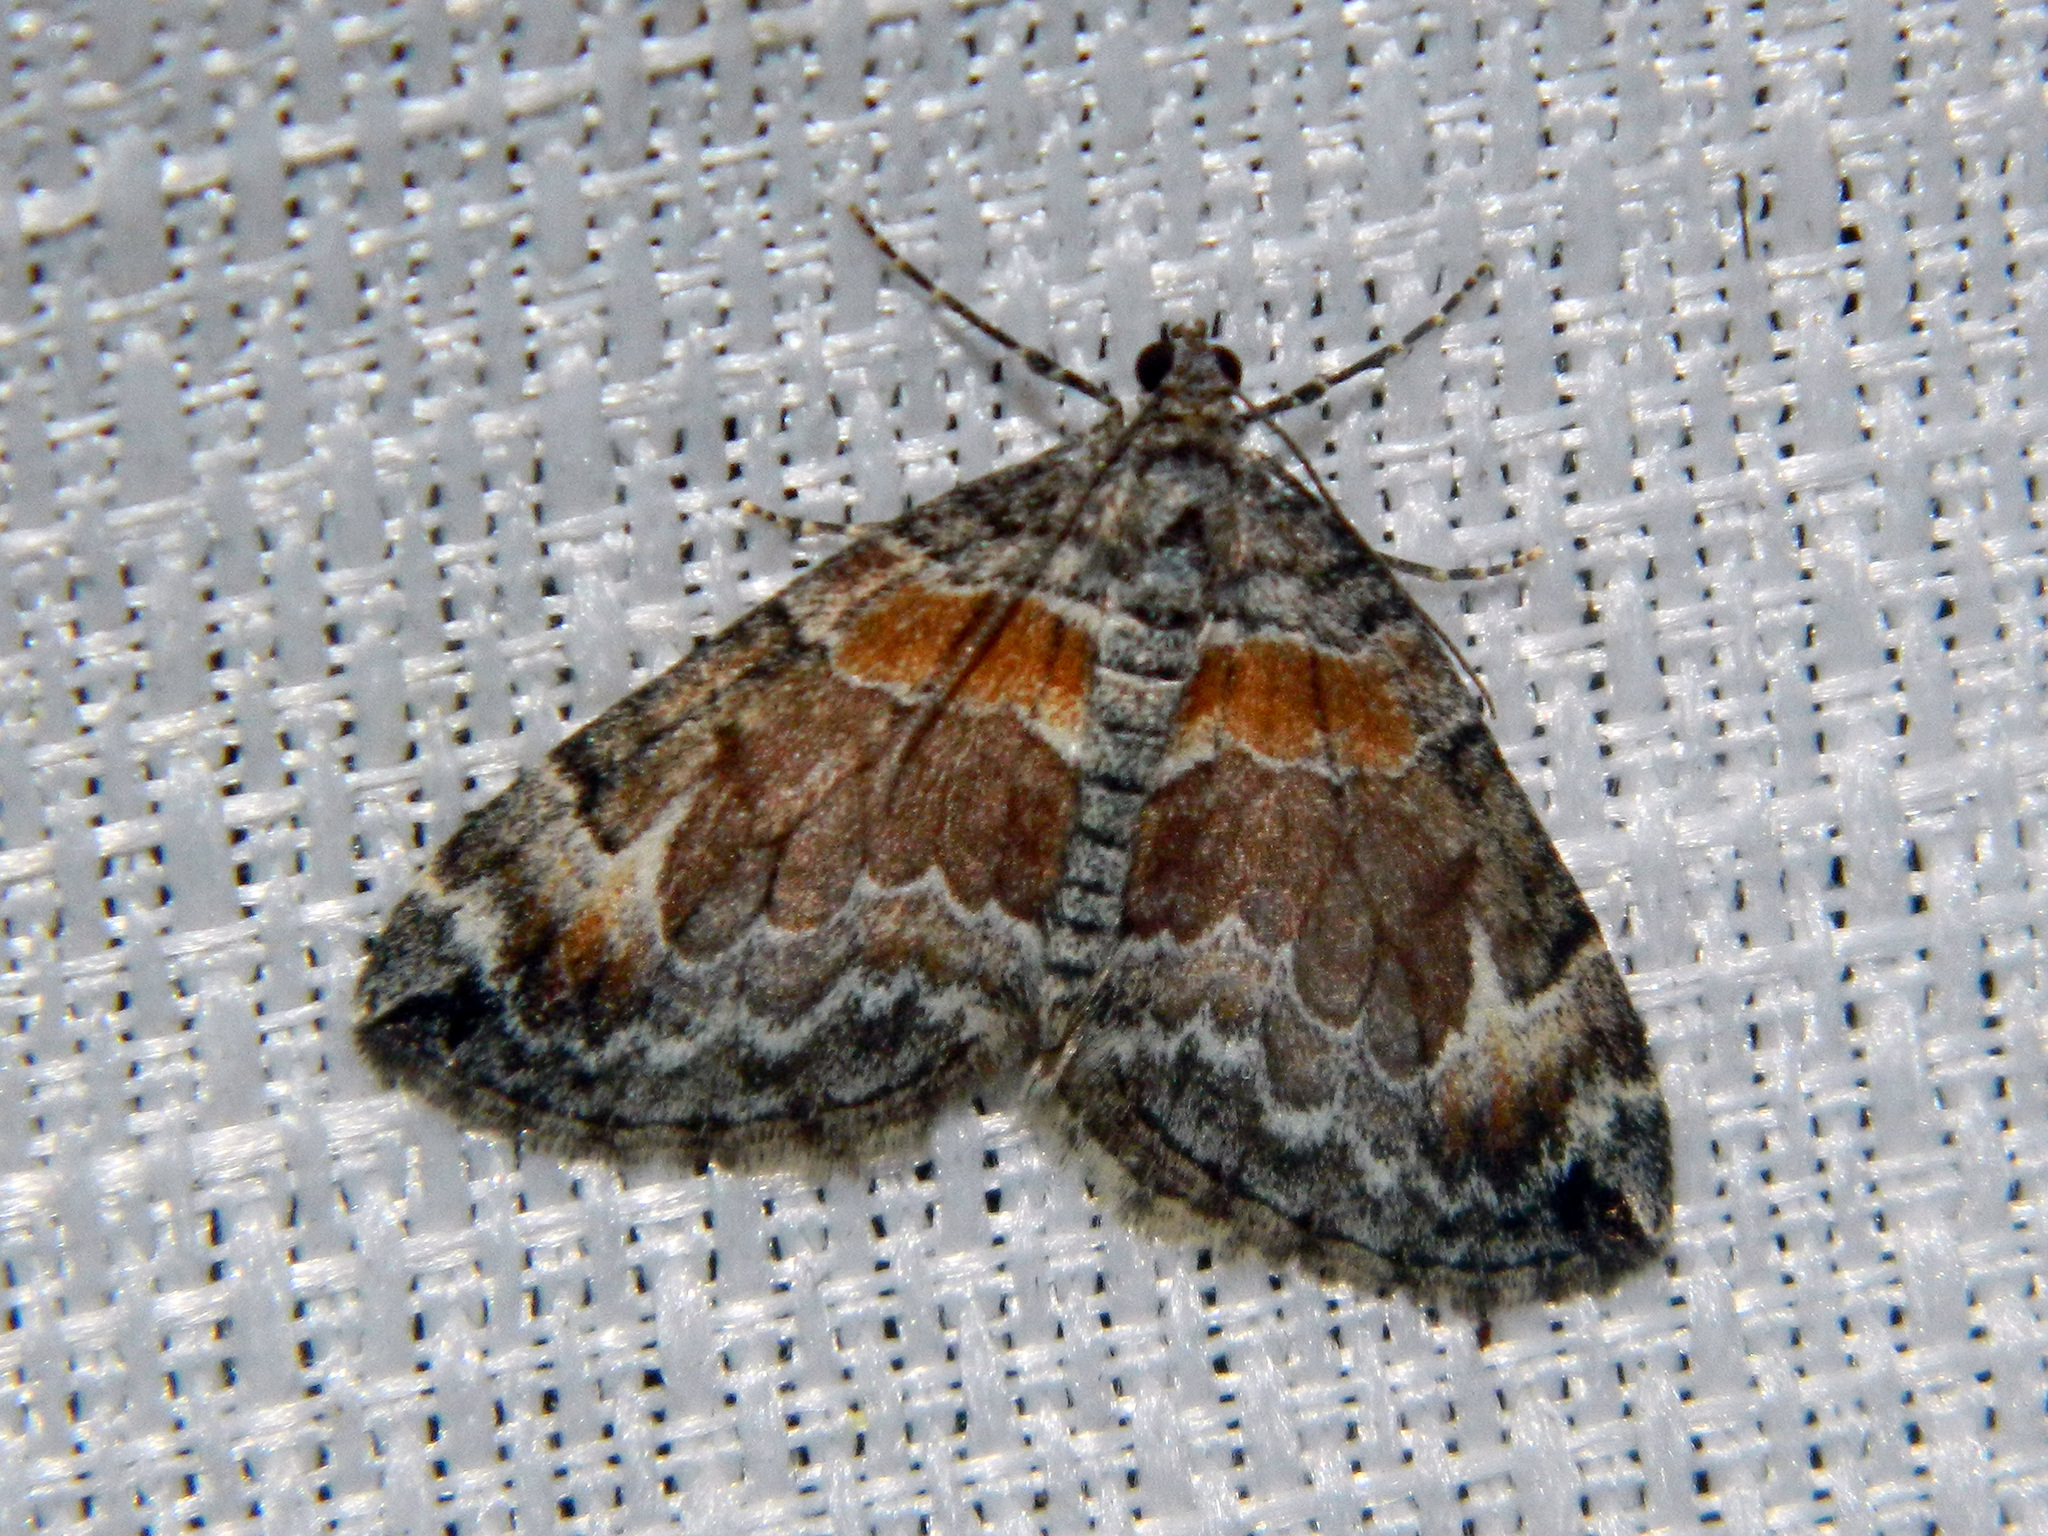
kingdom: Animalia
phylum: Arthropoda
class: Insecta
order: Lepidoptera
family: Geometridae
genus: Dysstroma
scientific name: Dysstroma hersiliata
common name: Orange-barred carpet
